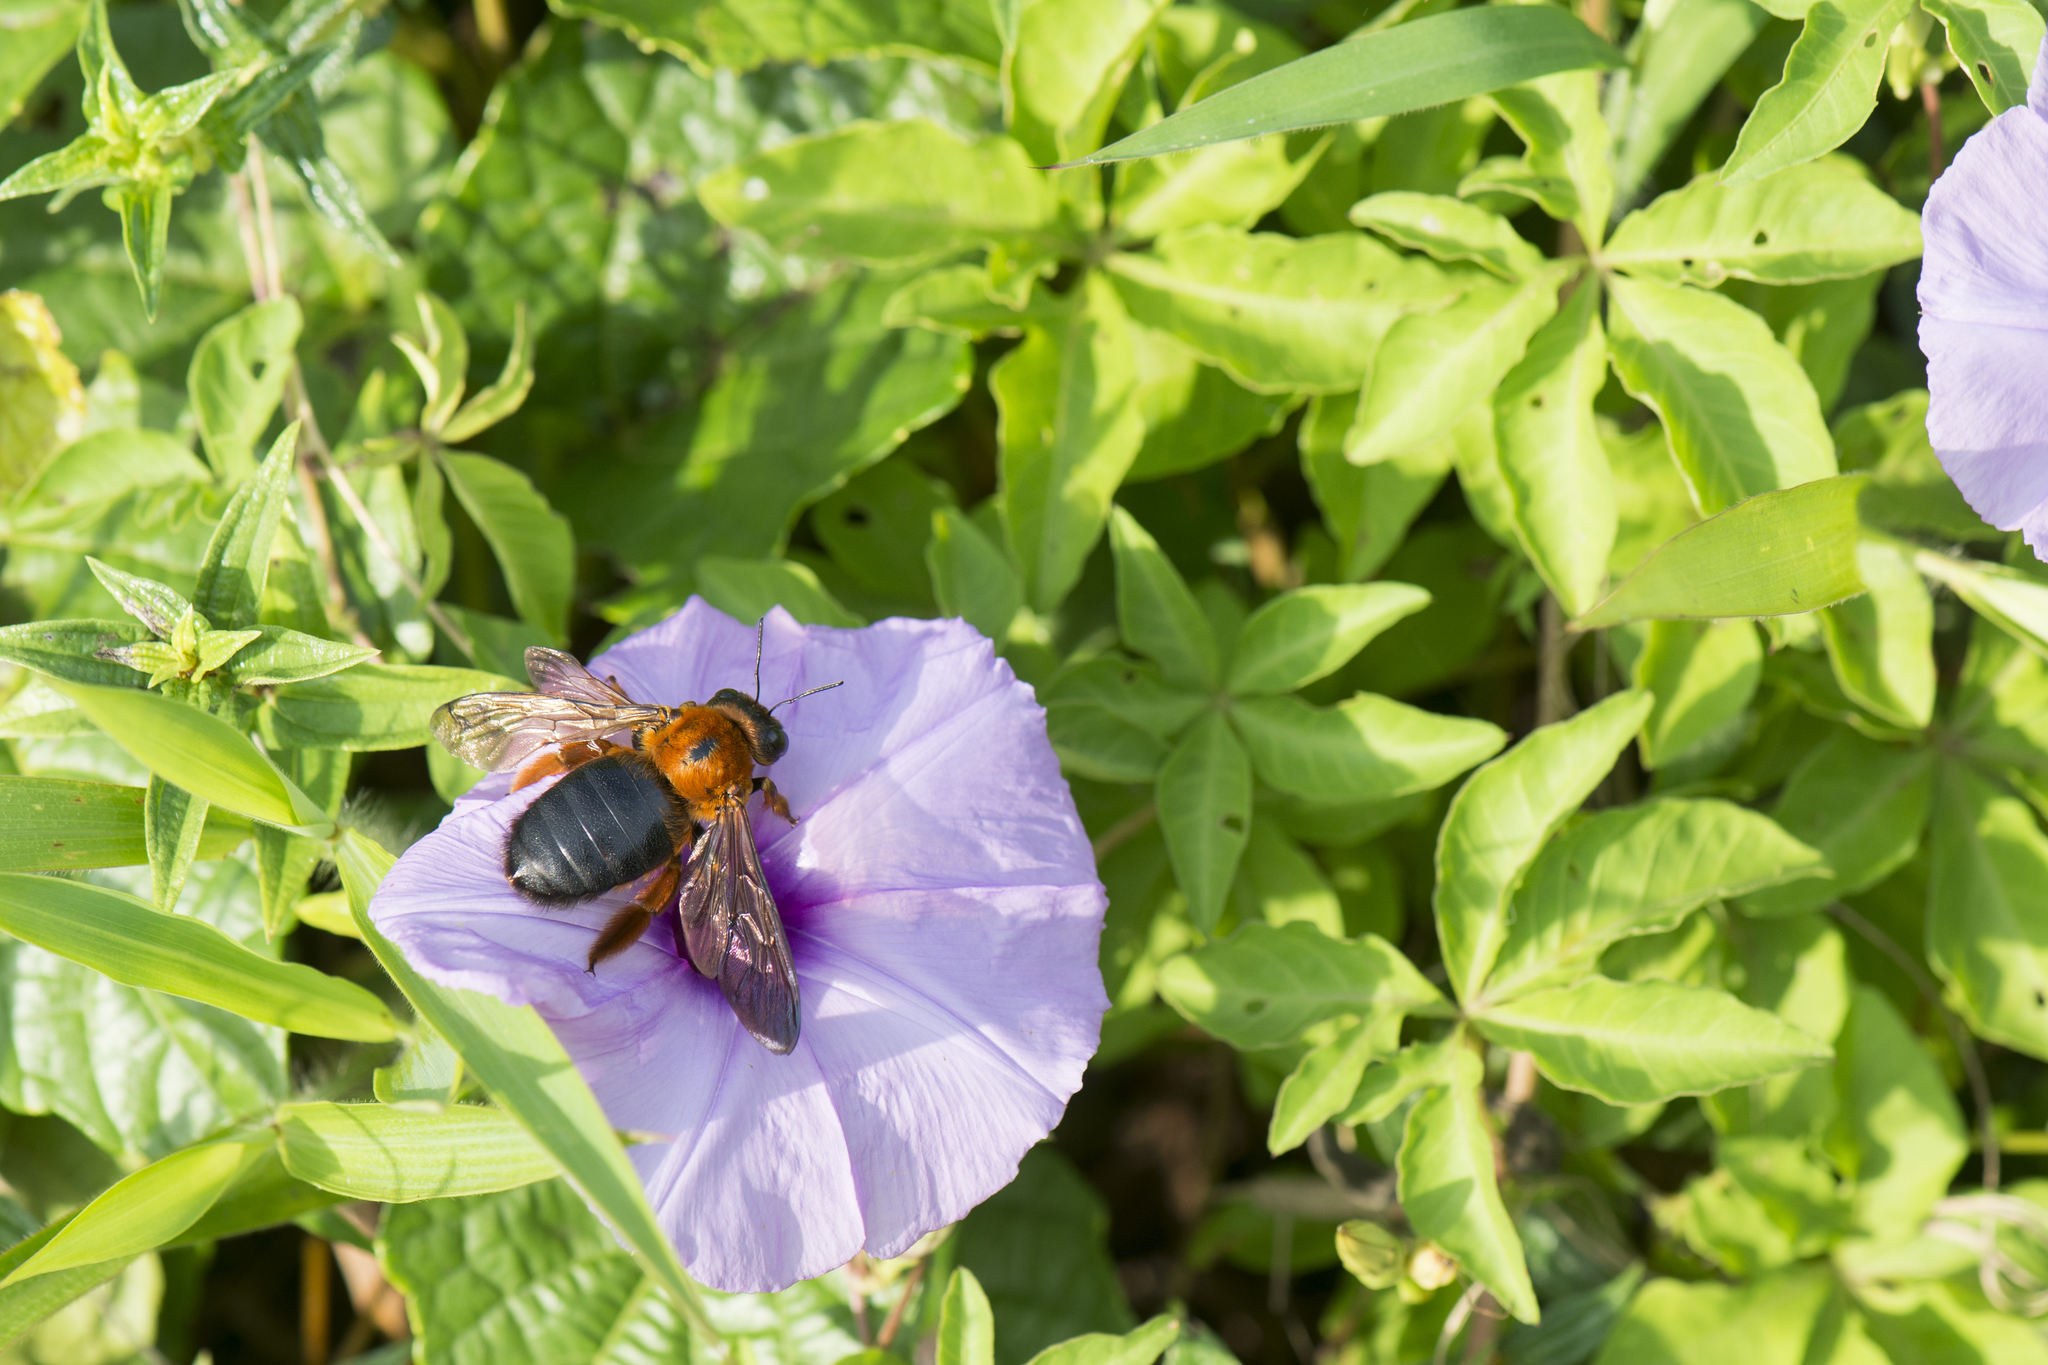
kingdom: Animalia
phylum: Arthropoda
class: Insecta
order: Hymenoptera
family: Apidae
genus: Xylocopa
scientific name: Xylocopa ruficeps
